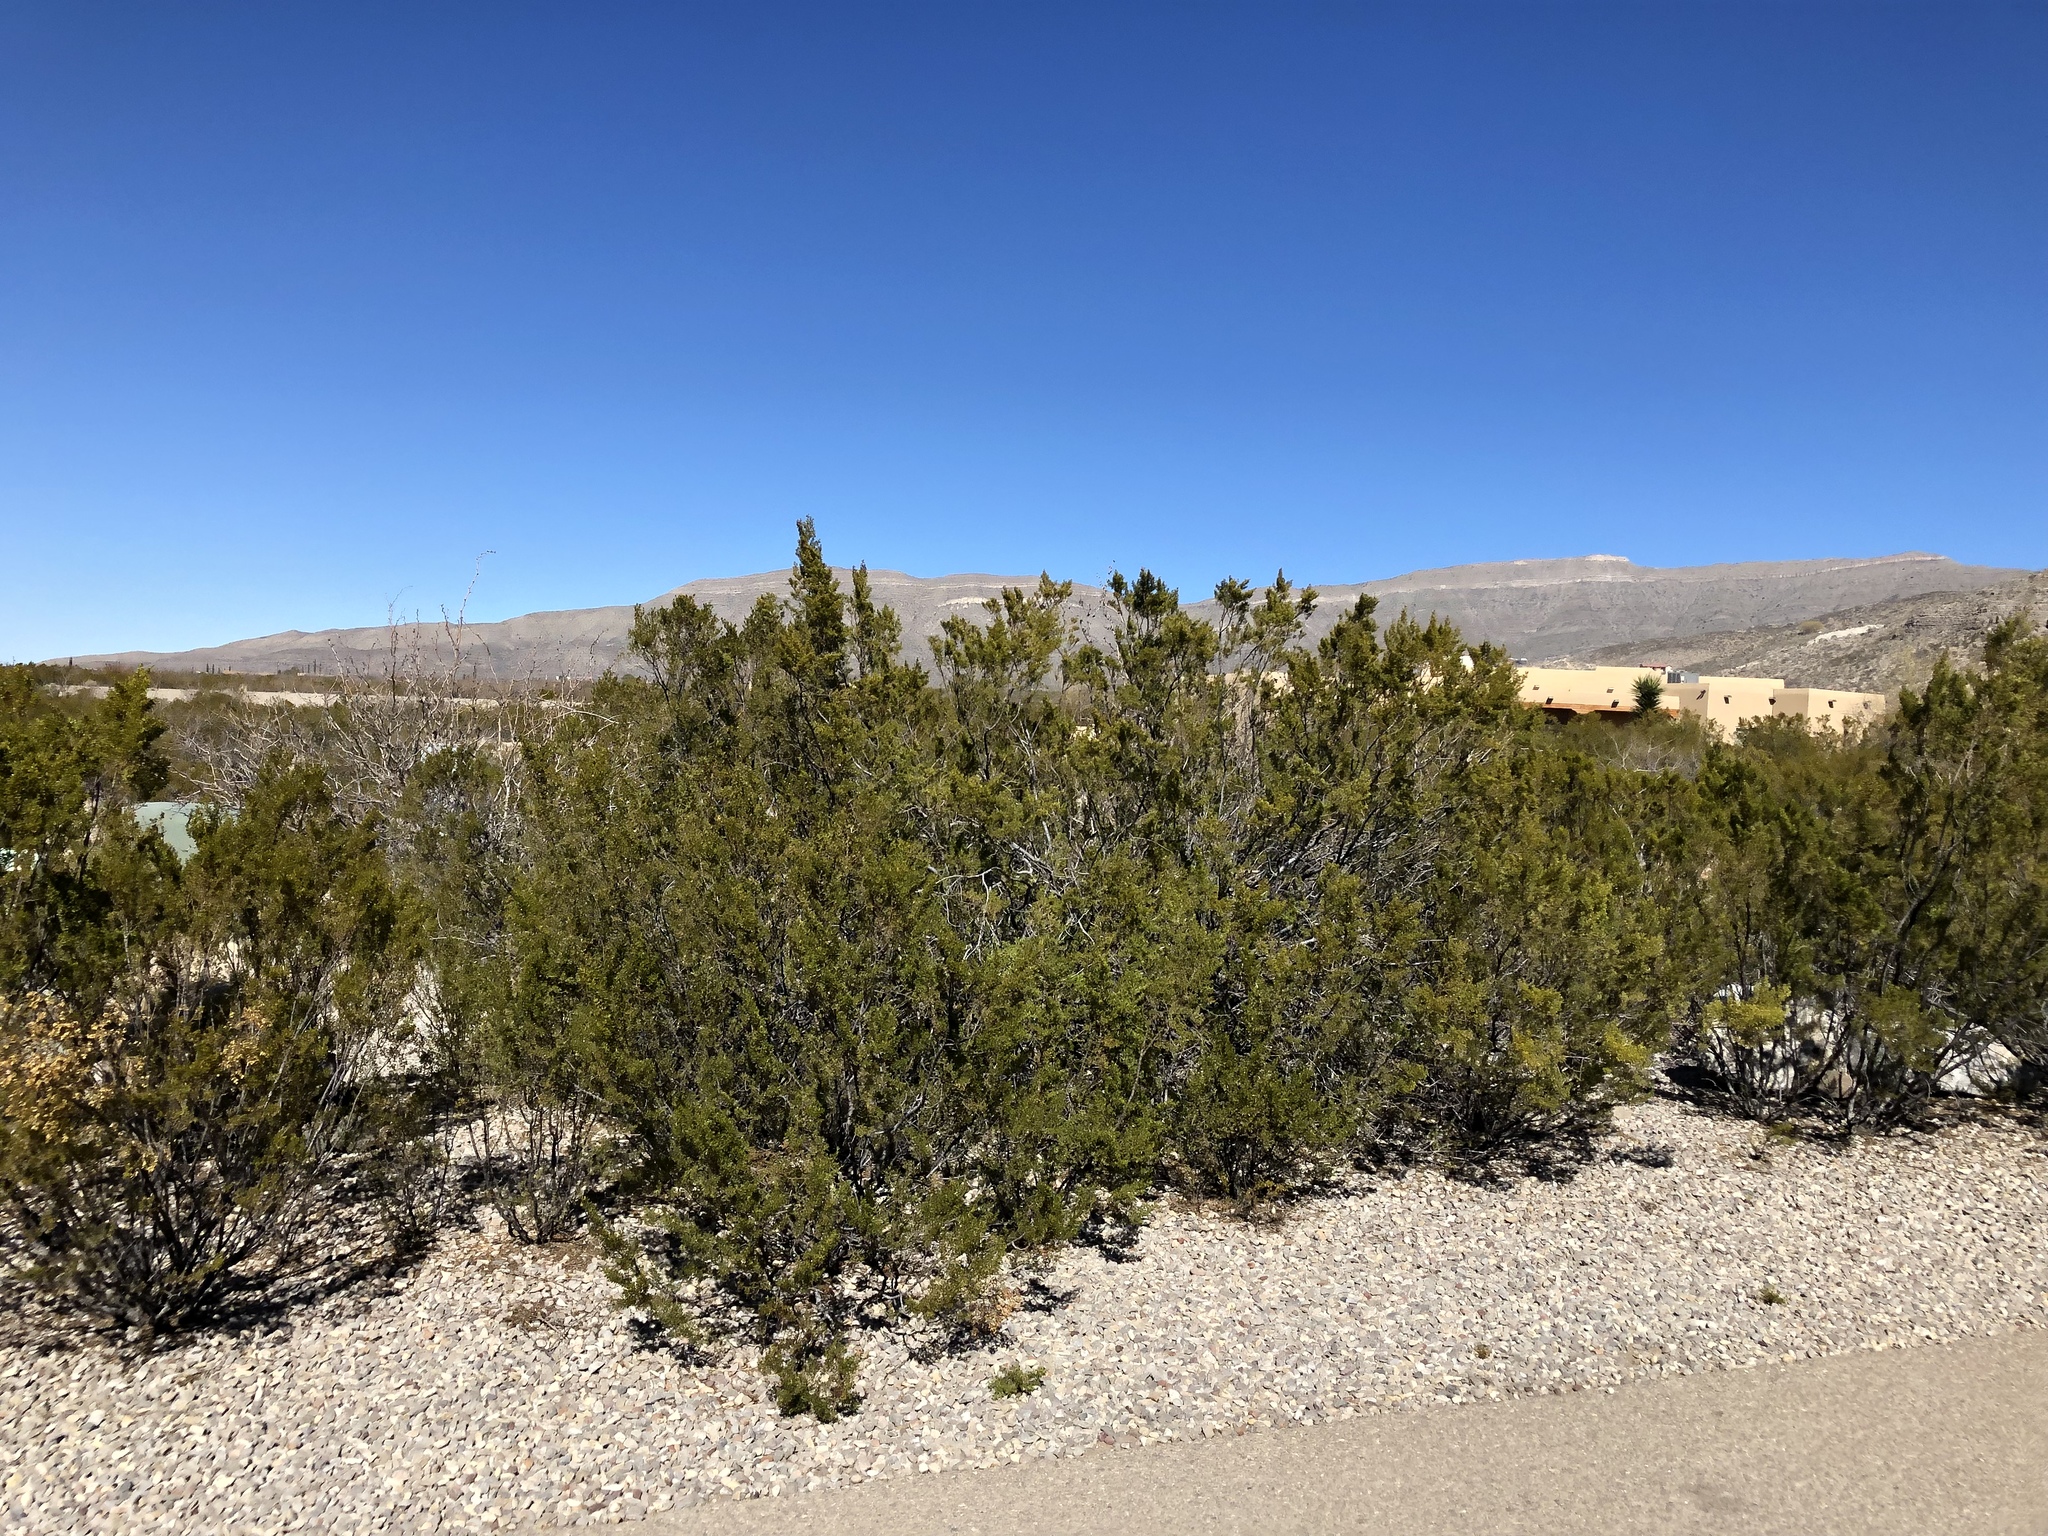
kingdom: Plantae
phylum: Tracheophyta
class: Magnoliopsida
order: Zygophyllales
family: Zygophyllaceae
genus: Larrea
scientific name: Larrea tridentata
